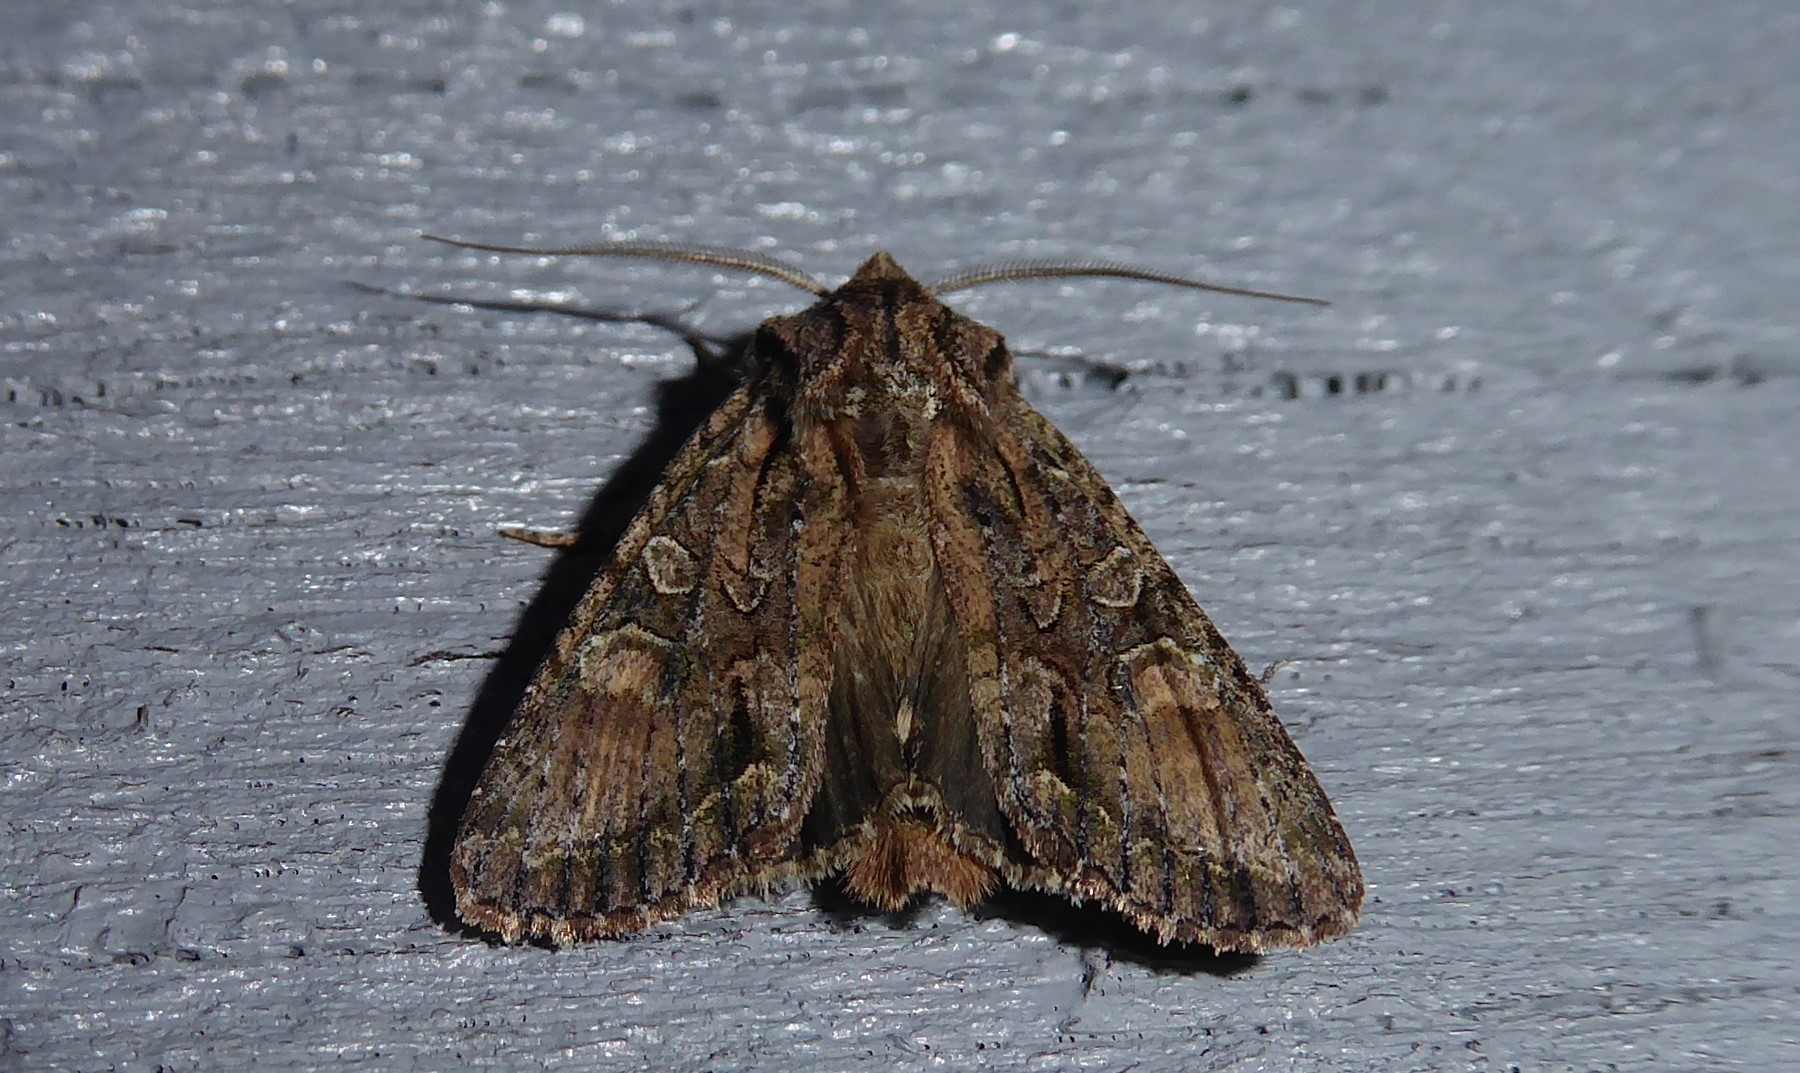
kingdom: Animalia
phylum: Arthropoda
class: Insecta
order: Lepidoptera
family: Noctuidae
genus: Ichneutica
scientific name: Ichneutica mutans
